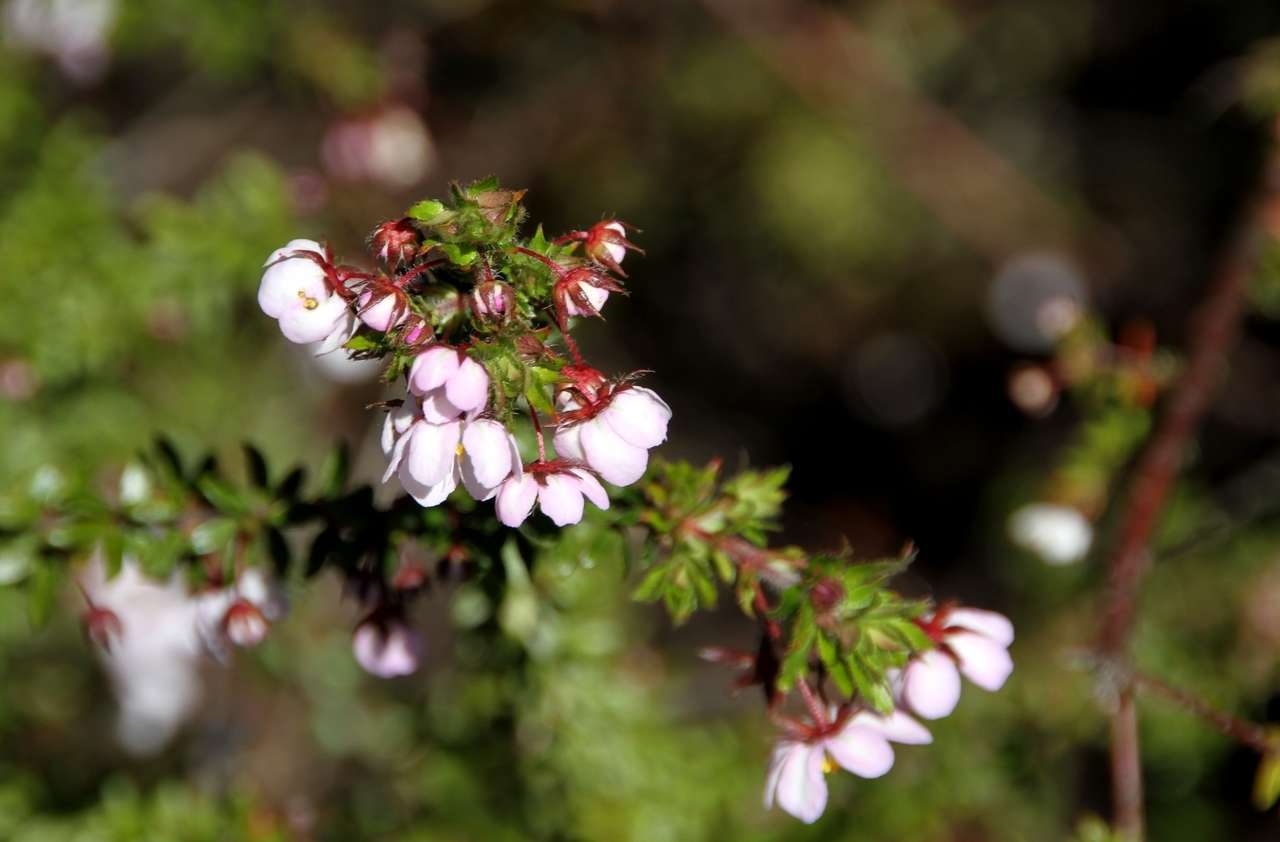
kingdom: Plantae
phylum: Tracheophyta
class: Magnoliopsida
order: Oxalidales
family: Cunoniaceae
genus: Bauera
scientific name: Bauera rubioides
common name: River-rose
